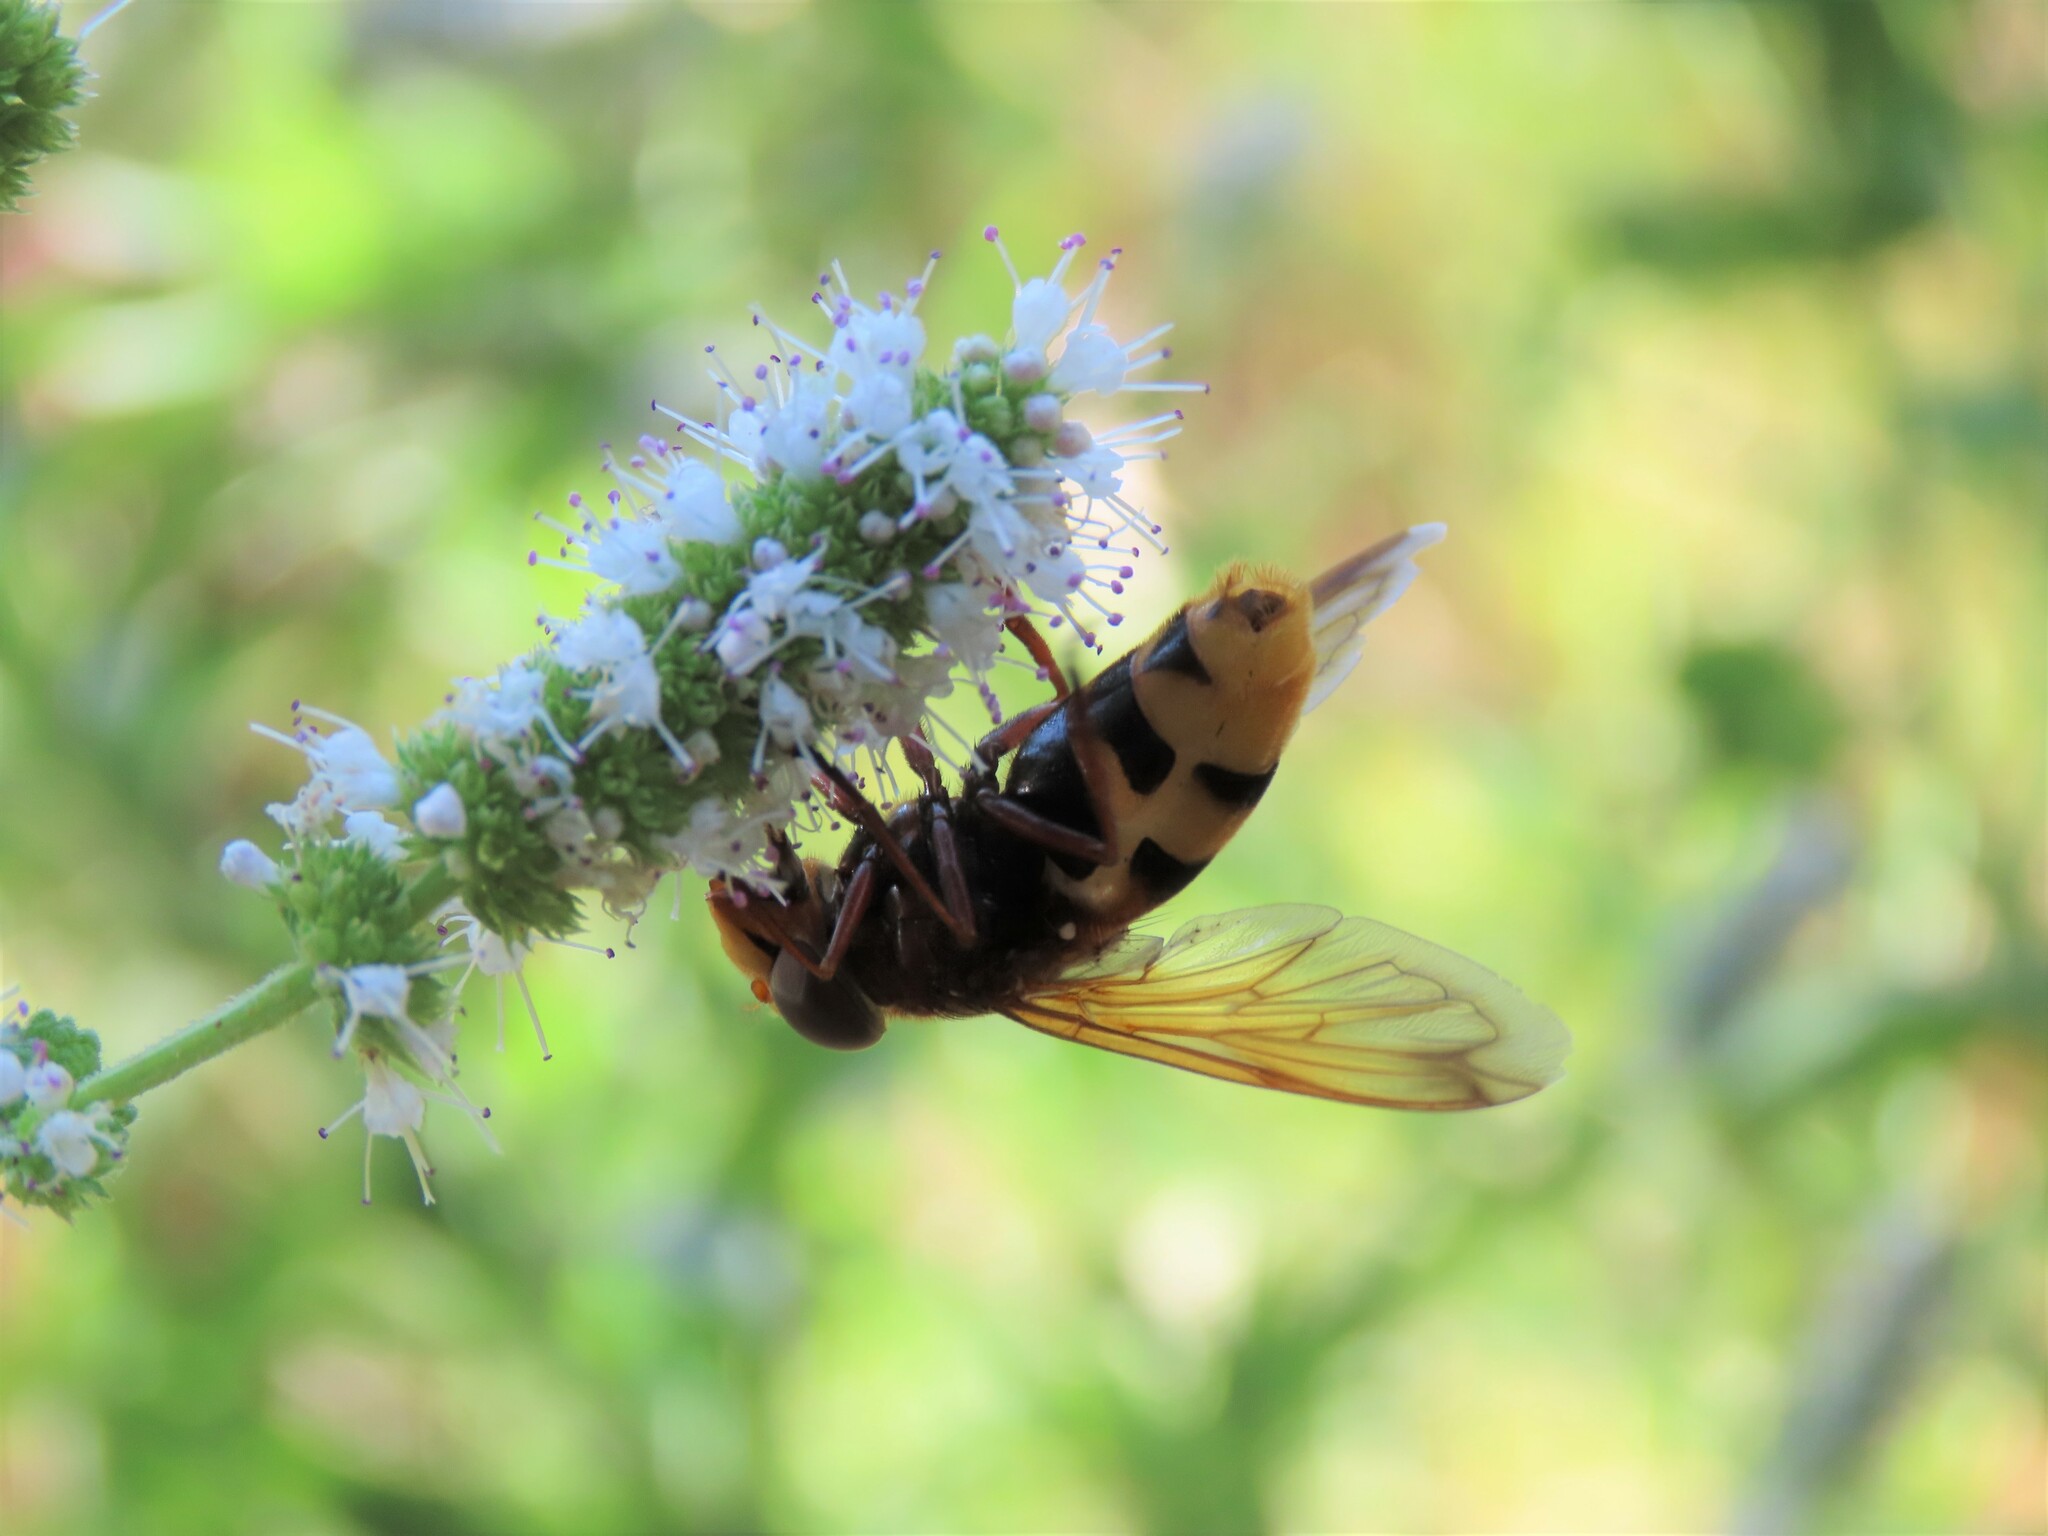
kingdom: Animalia
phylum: Arthropoda
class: Insecta
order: Diptera
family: Syrphidae
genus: Volucella
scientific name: Volucella zonaria
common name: Hornet hoverfly
